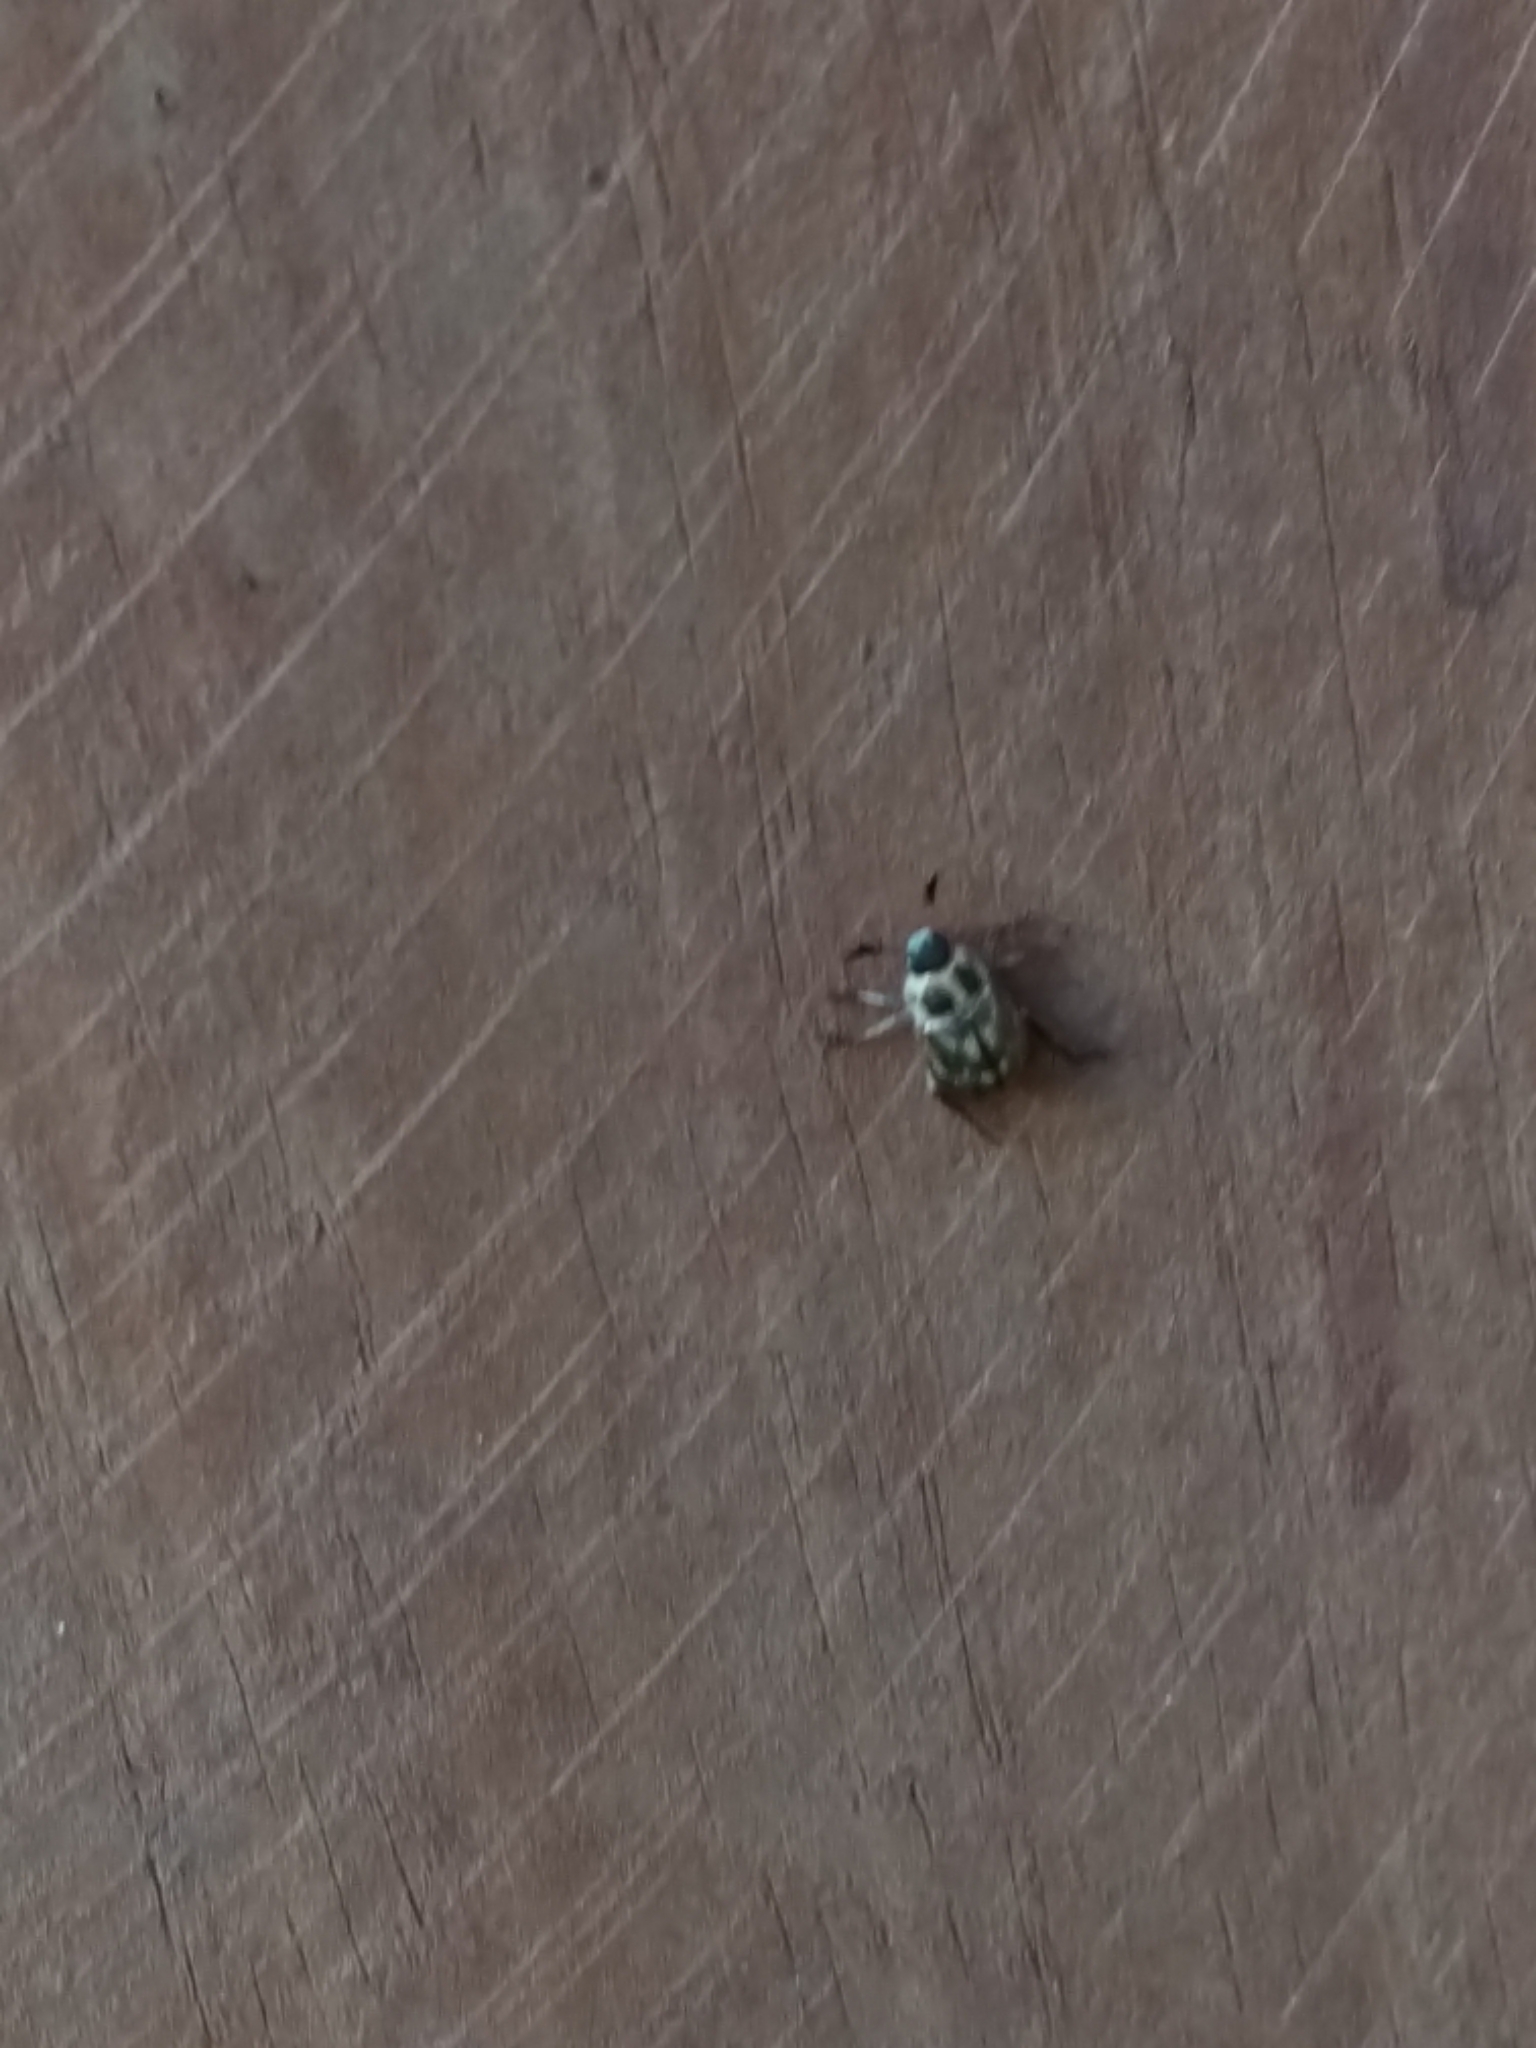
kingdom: Animalia
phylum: Arthropoda
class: Insecta
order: Coleoptera
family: Scarabaeidae
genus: Exomala
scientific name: Exomala orientalis
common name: Oriental beetle
